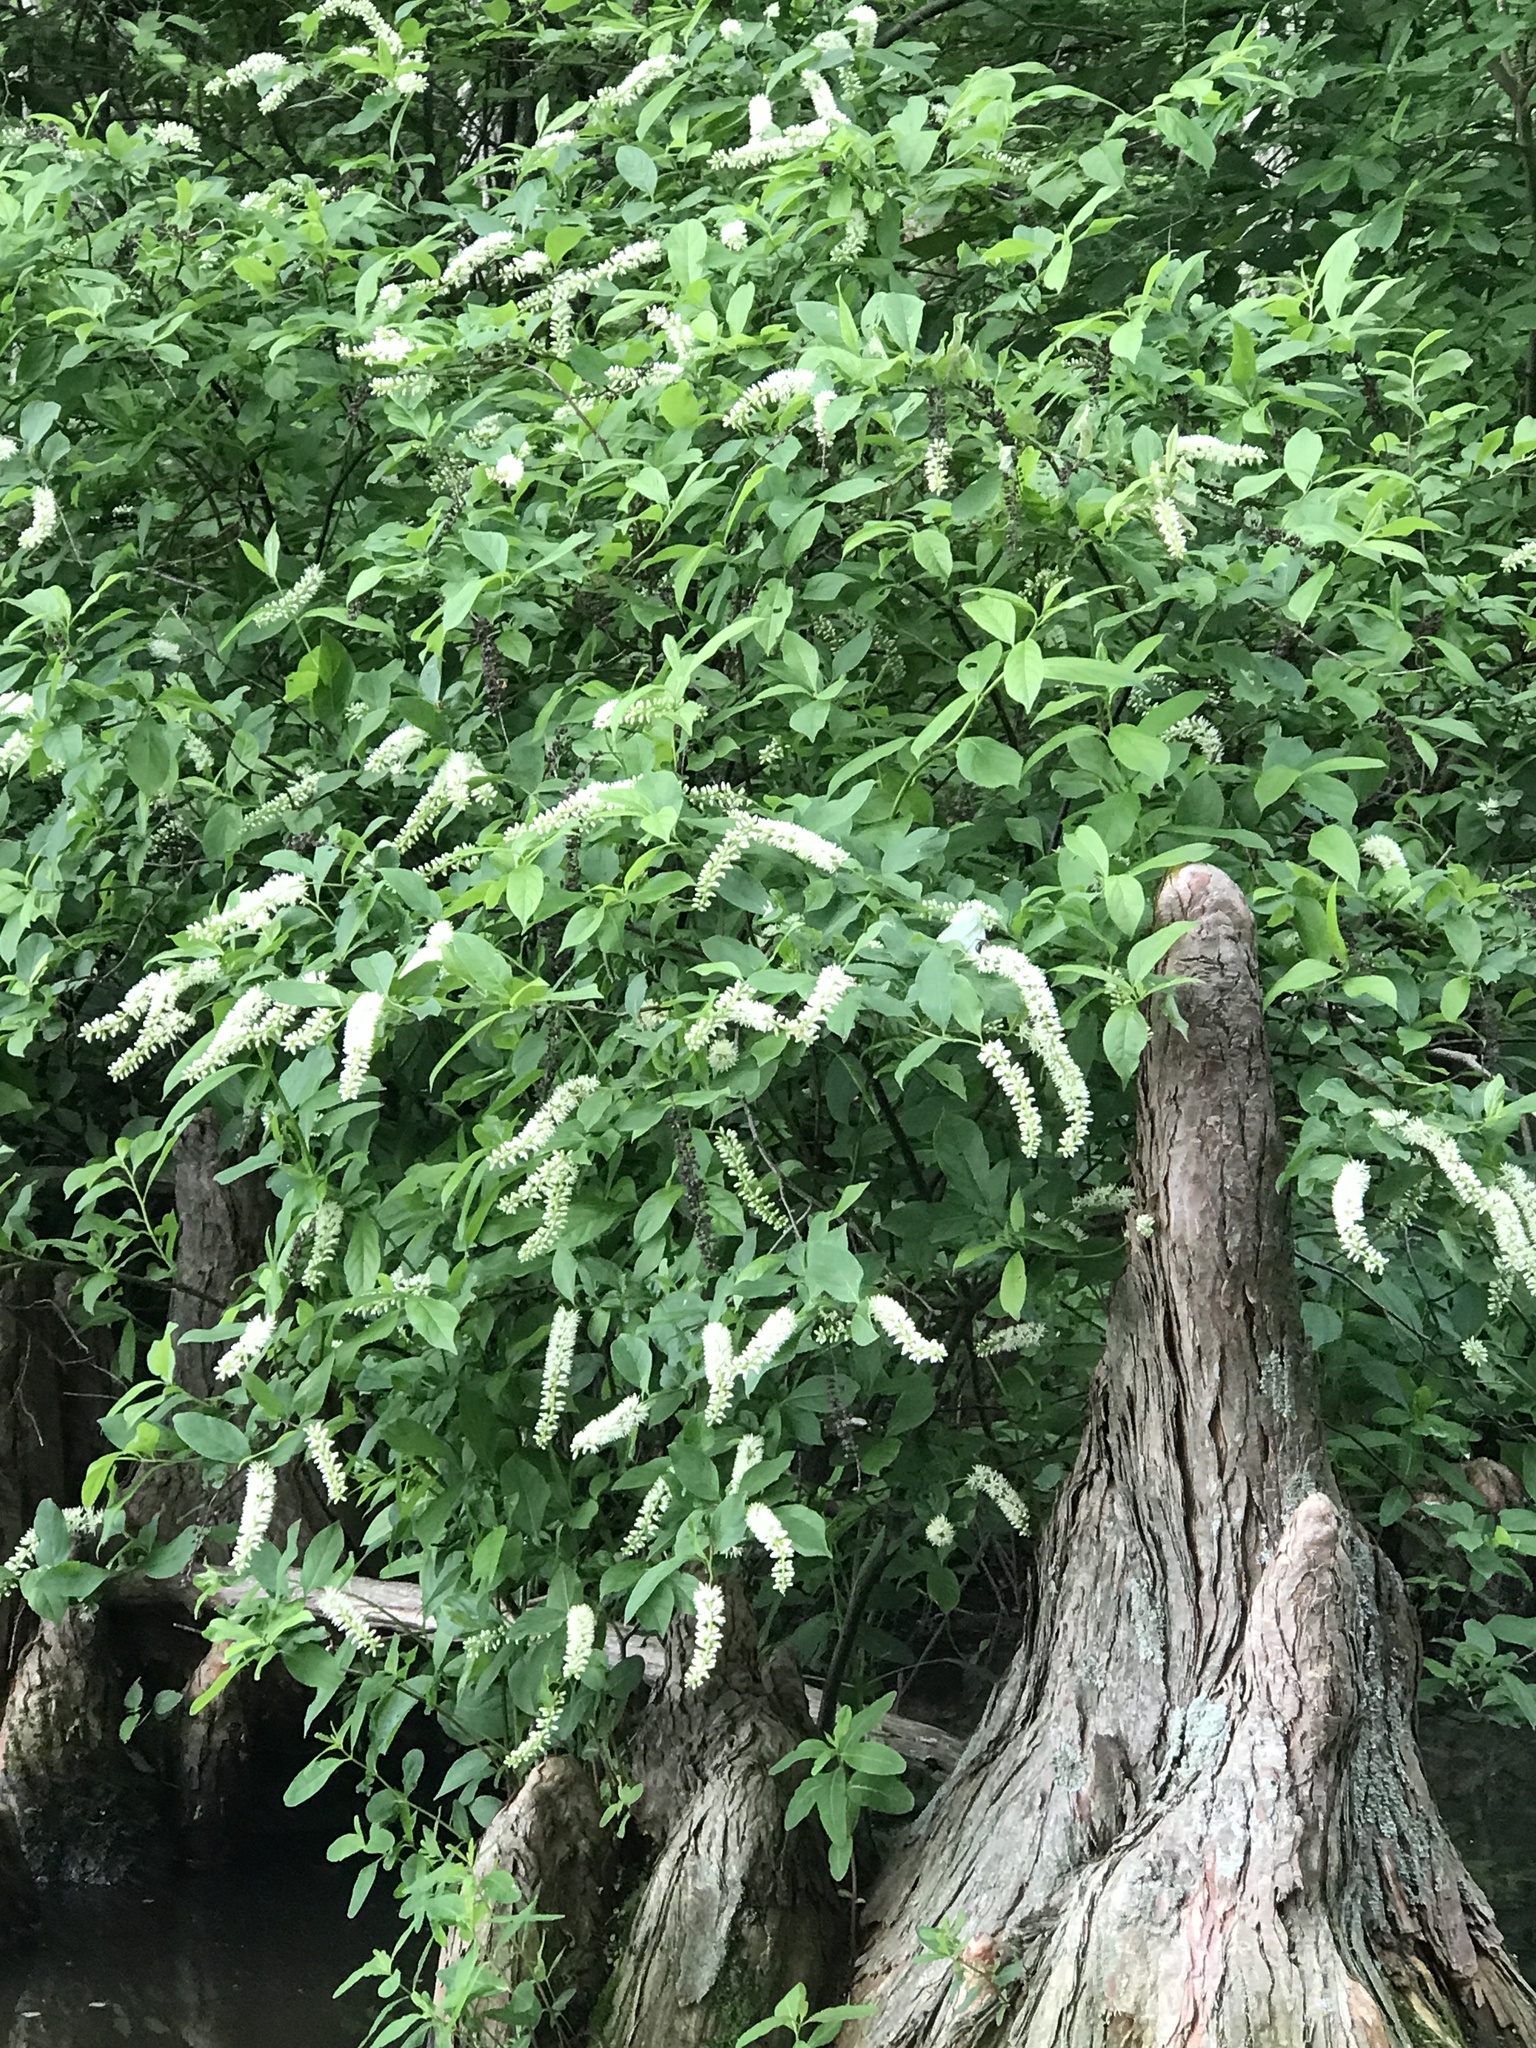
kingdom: Plantae
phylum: Tracheophyta
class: Magnoliopsida
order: Saxifragales
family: Iteaceae
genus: Itea
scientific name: Itea virginica
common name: Sweetspire
